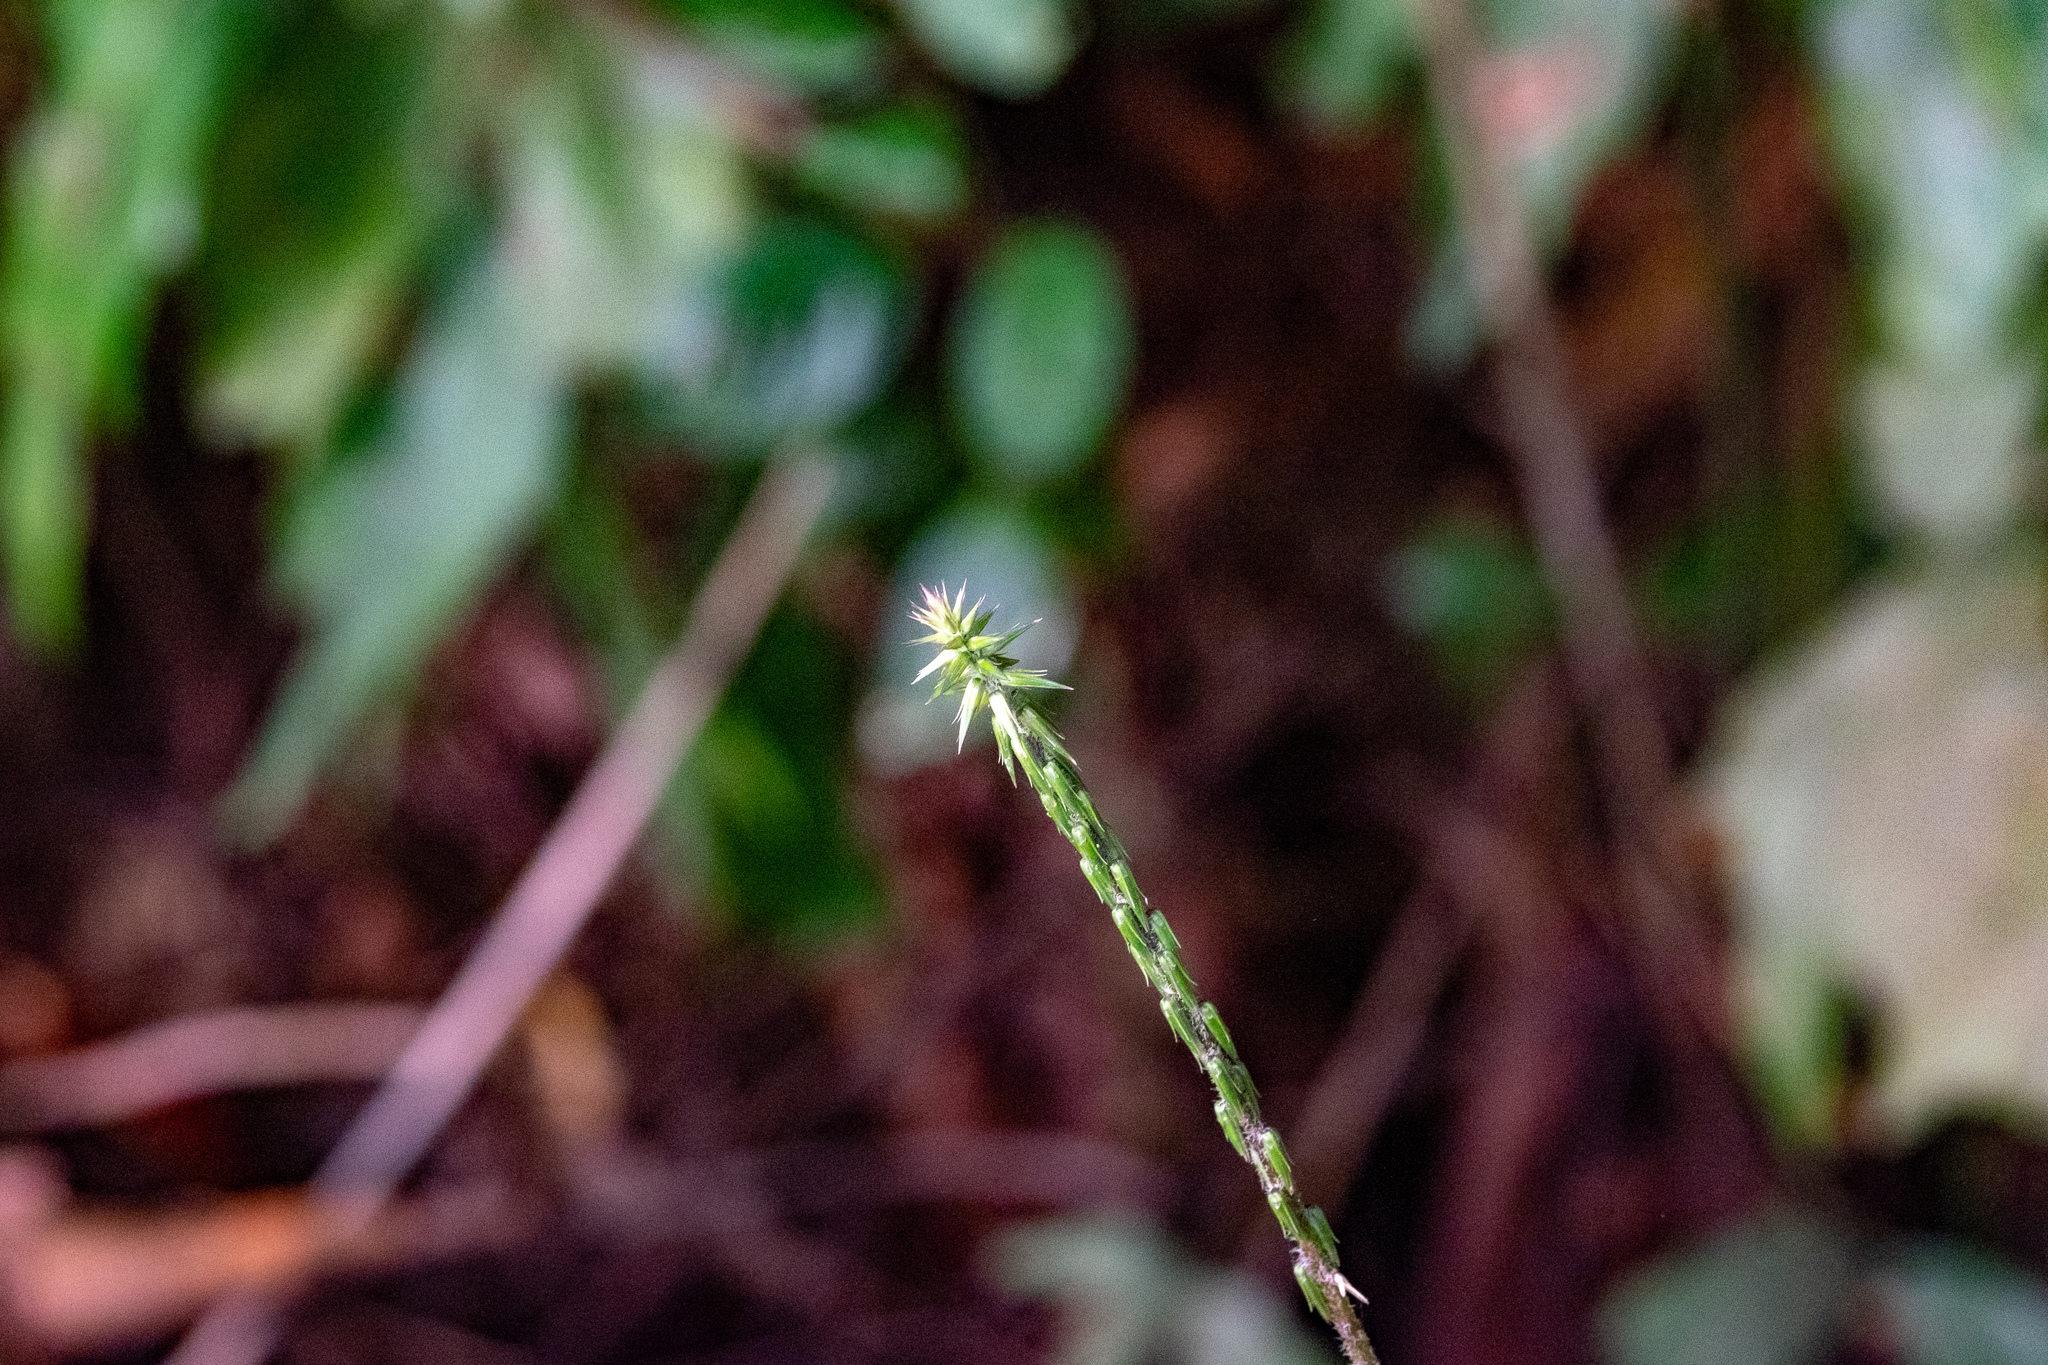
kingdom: Plantae
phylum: Tracheophyta
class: Magnoliopsida
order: Caryophyllales
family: Amaranthaceae
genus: Achyranthes
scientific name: Achyranthes aspera
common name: Devil's horsewhip
